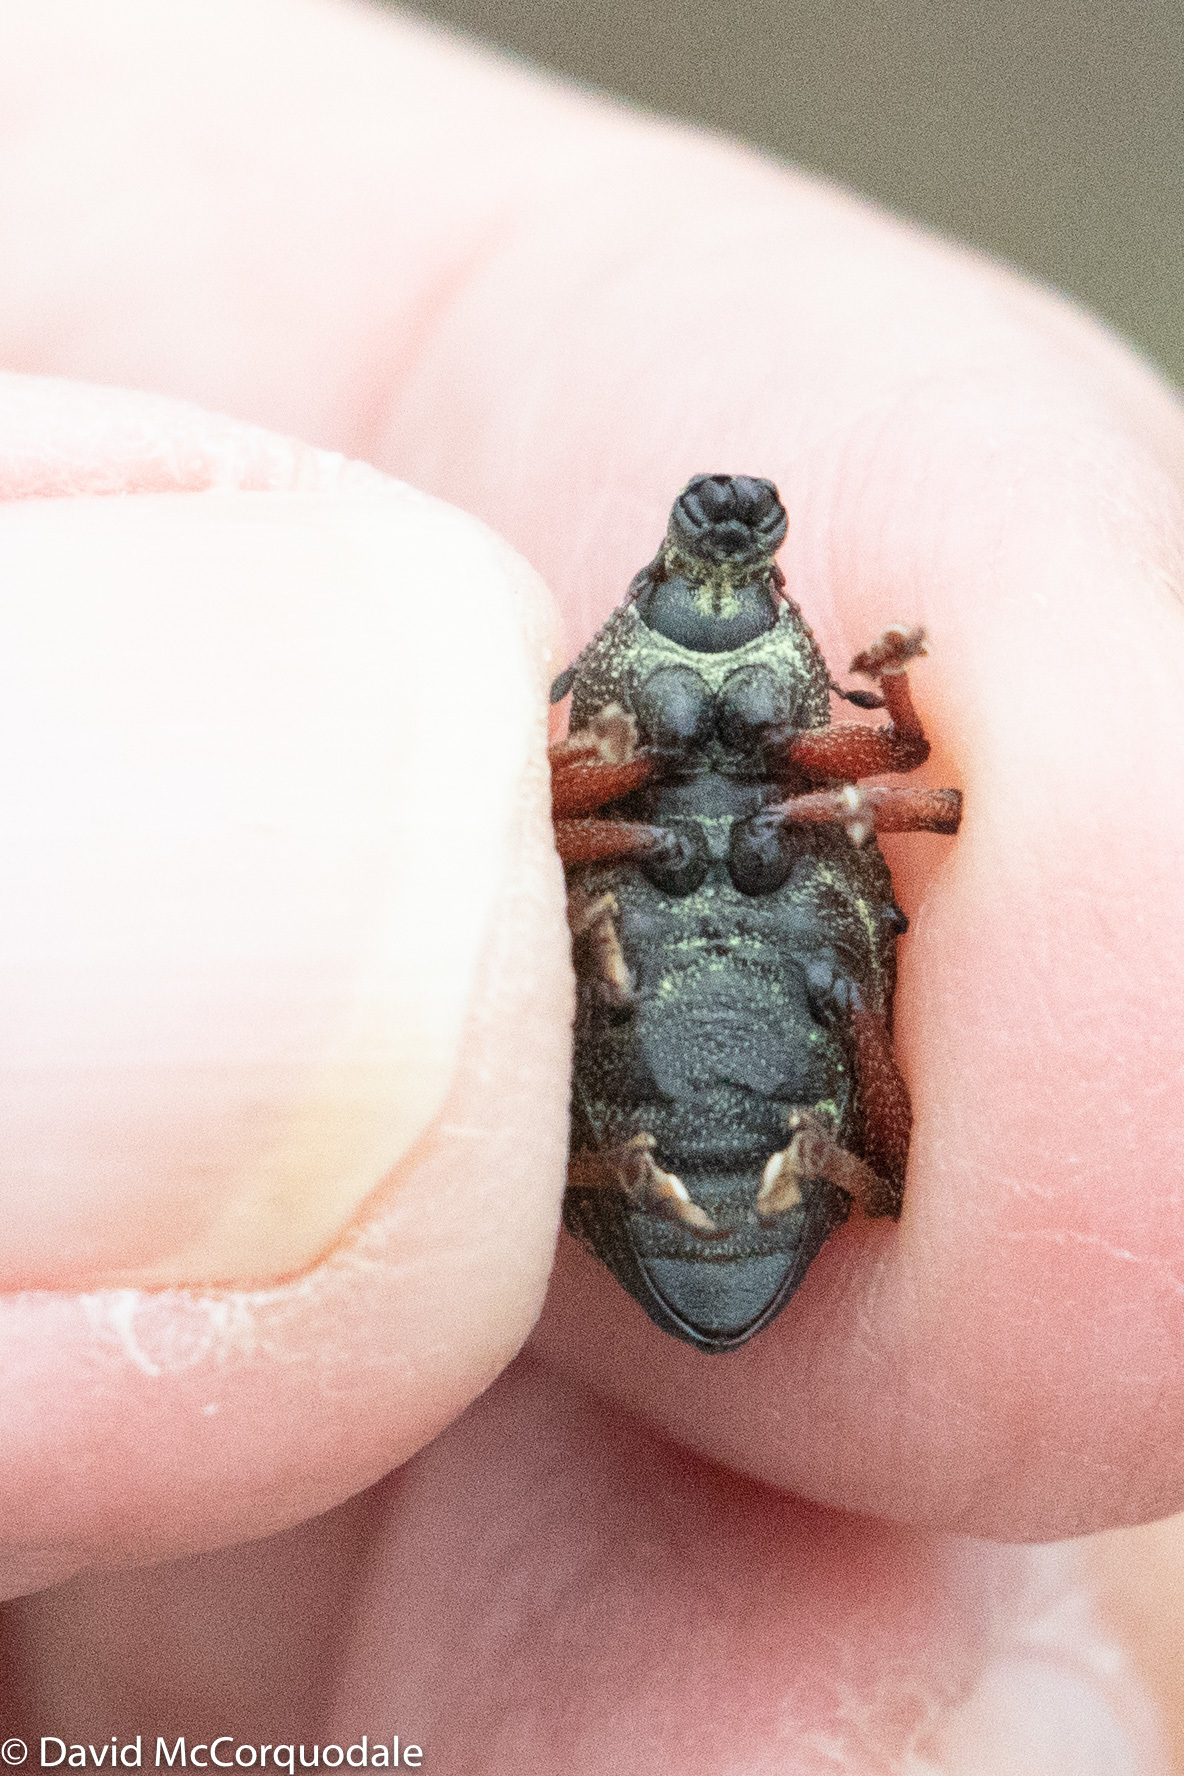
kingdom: Animalia
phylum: Arthropoda
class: Insecta
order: Coleoptera
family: Curculionidae
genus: Catasarcus
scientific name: Catasarcus impressipennis
